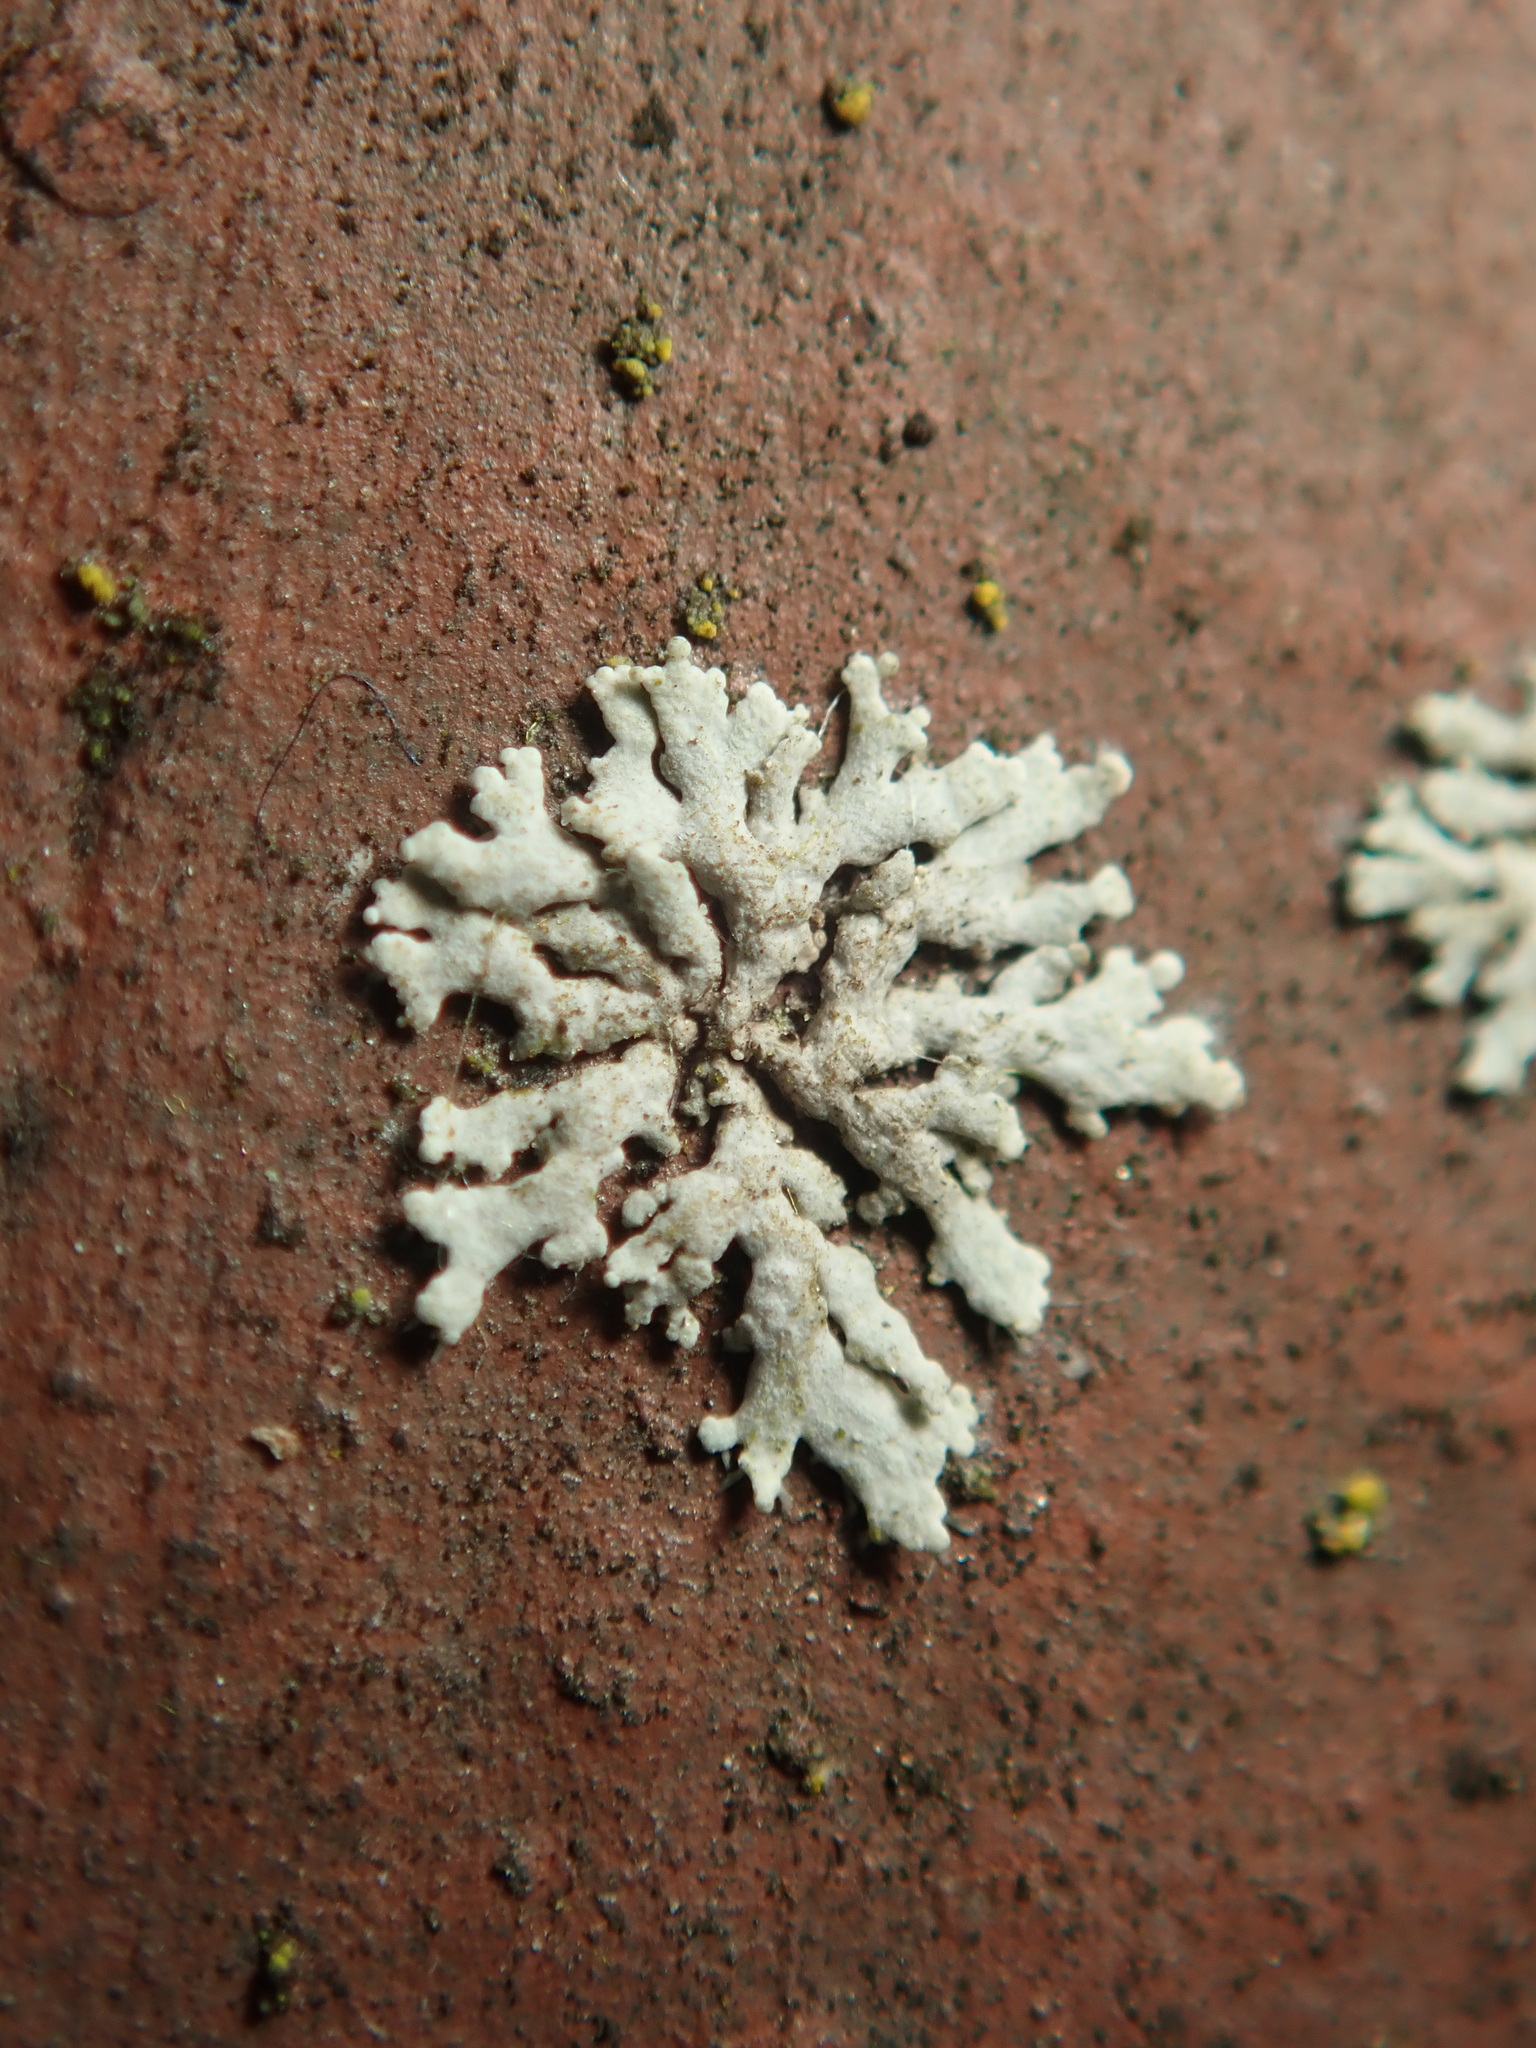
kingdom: Fungi
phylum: Ascomycota
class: Lecanoromycetes
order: Caliciales
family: Physciaceae
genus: Physcia
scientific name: Physcia caesia
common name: Blue-gray rosette lichen
